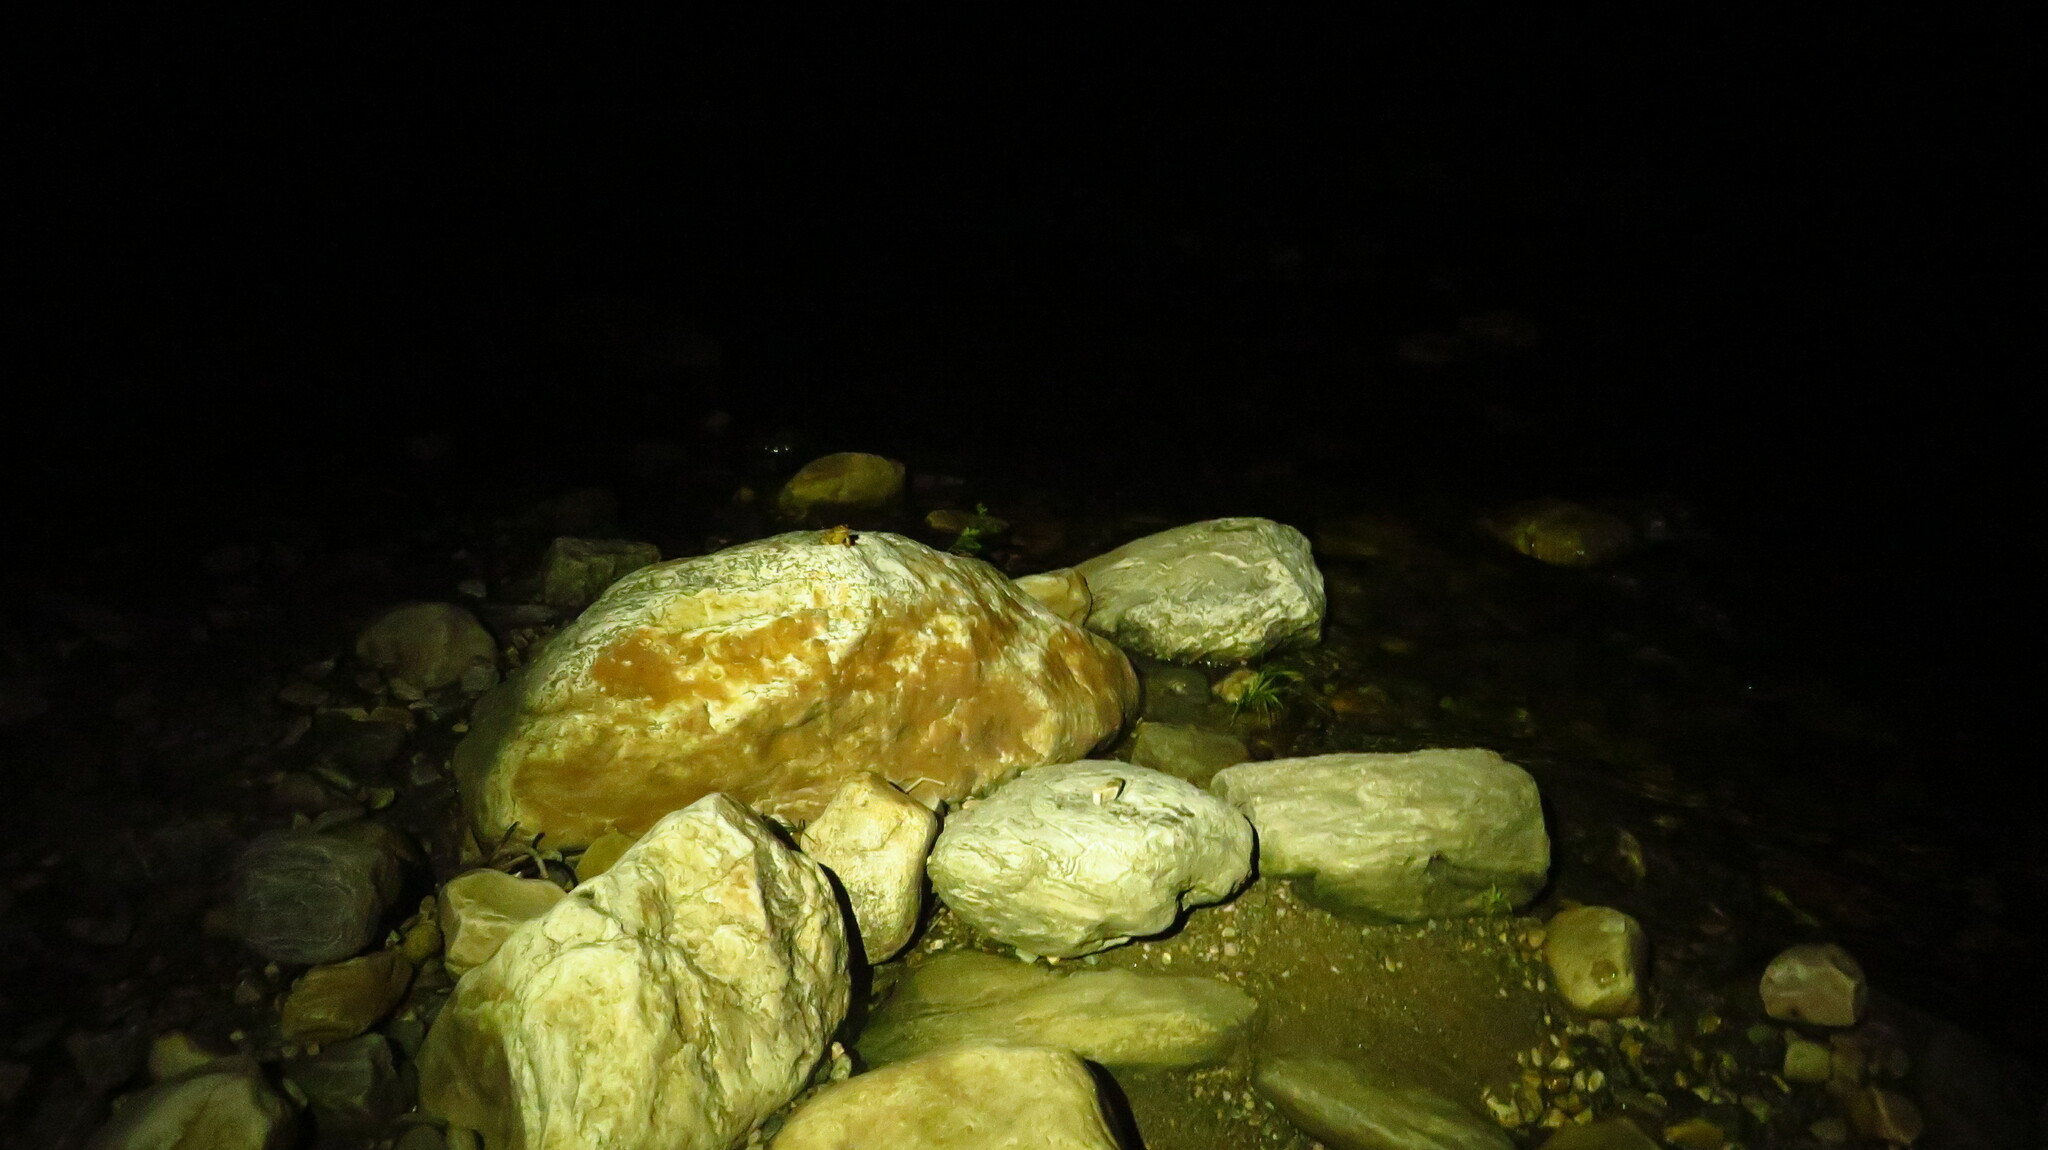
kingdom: Animalia
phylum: Chordata
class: Amphibia
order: Anura
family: Bufonidae
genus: Anaxyrus
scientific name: Anaxyrus americanus
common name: American toad
